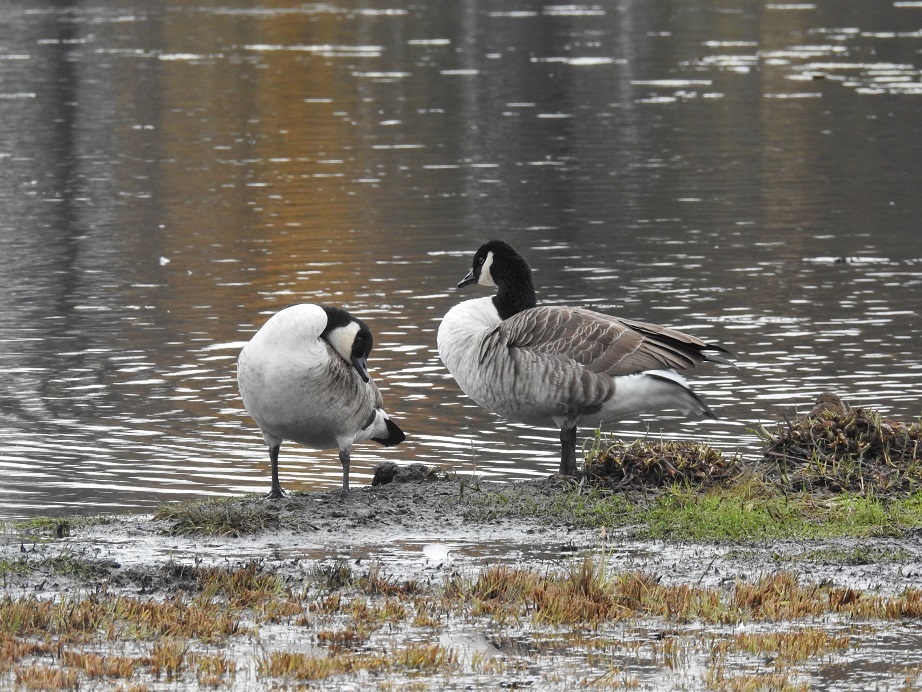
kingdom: Animalia
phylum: Chordata
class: Aves
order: Anseriformes
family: Anatidae
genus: Branta
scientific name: Branta canadensis
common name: Canada goose
